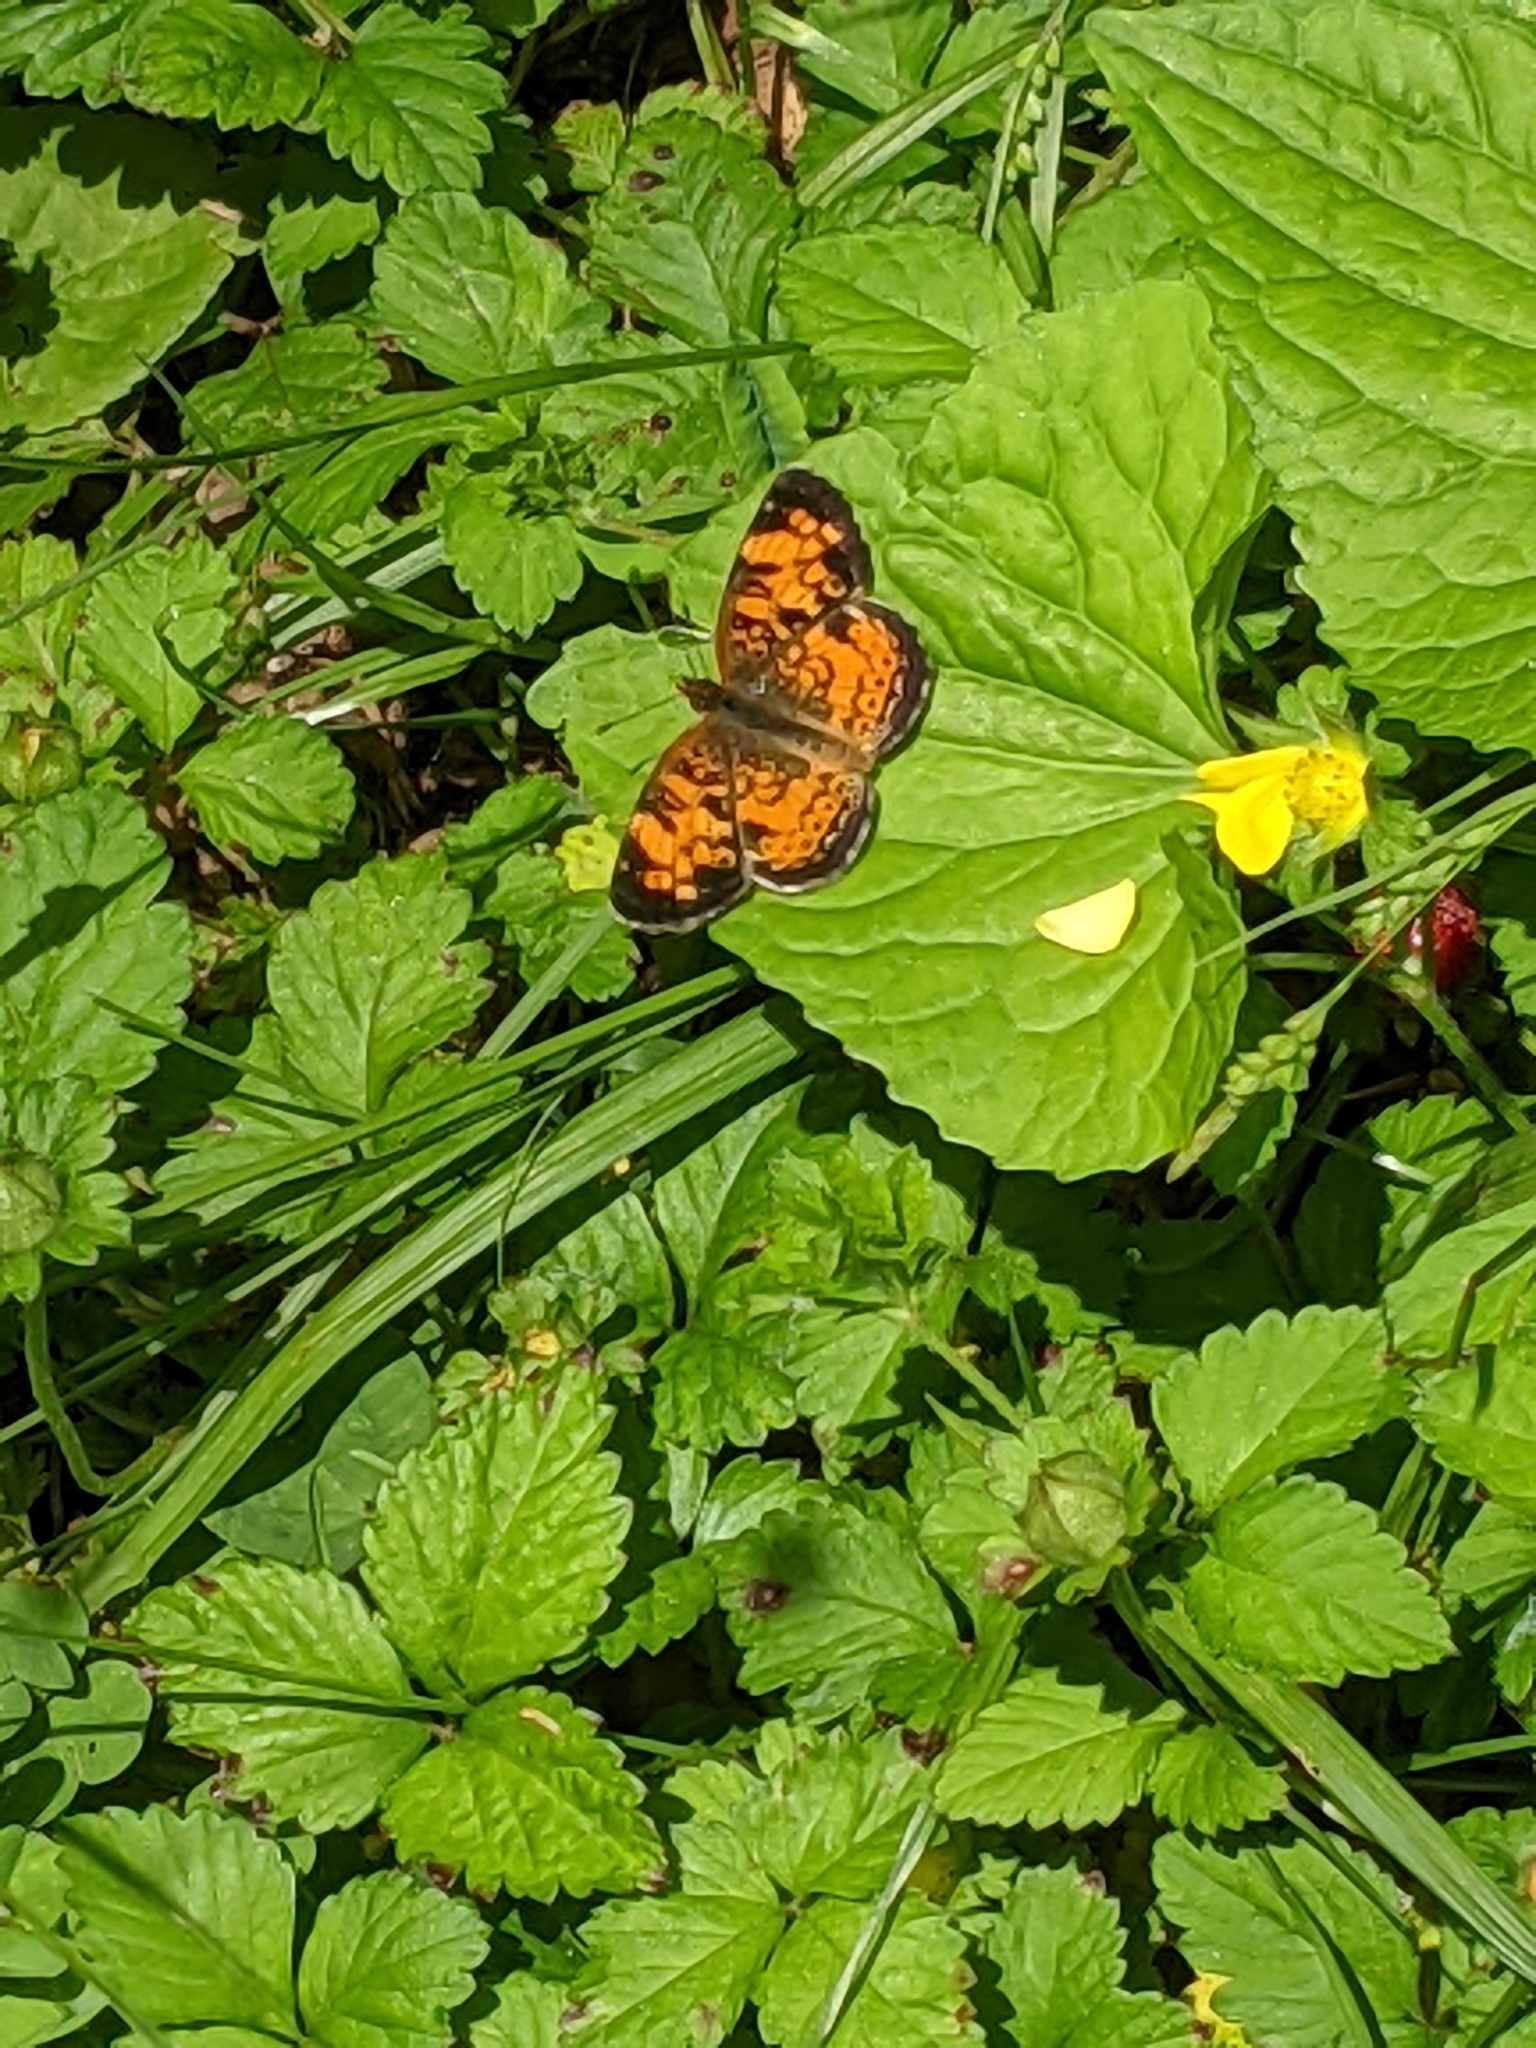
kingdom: Animalia
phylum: Arthropoda
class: Insecta
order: Lepidoptera
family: Nymphalidae
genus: Phyciodes
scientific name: Phyciodes tharos
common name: Pearl crescent
